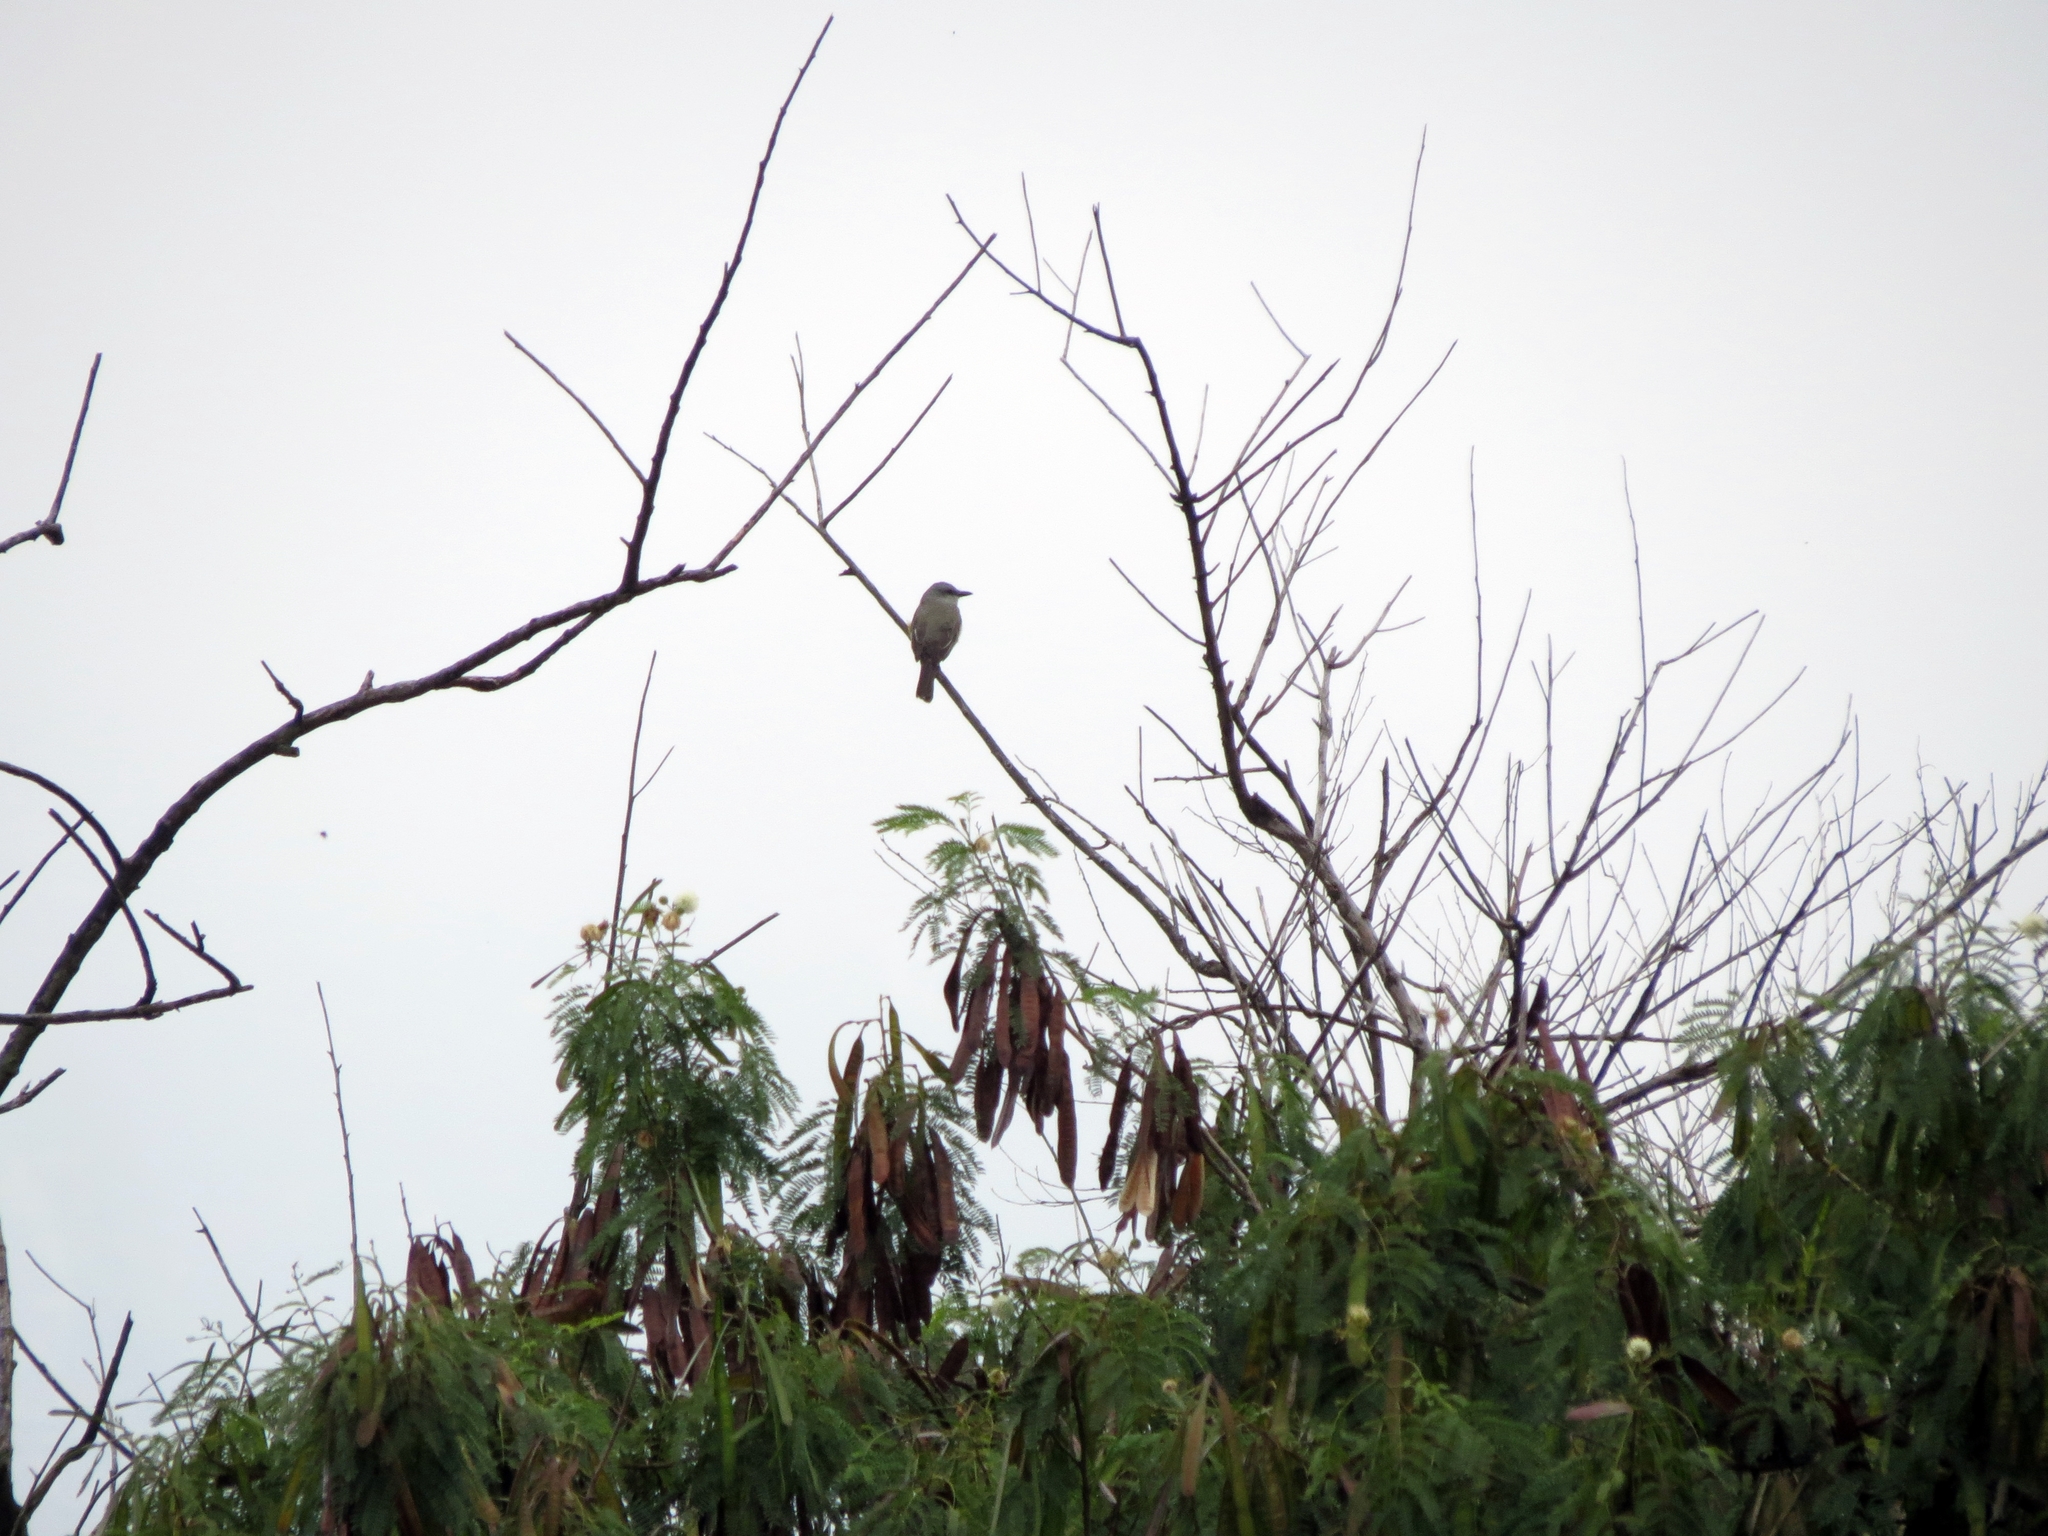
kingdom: Animalia
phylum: Chordata
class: Aves
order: Passeriformes
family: Tyrannidae
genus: Tyrannus
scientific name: Tyrannus melancholicus
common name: Tropical kingbird
